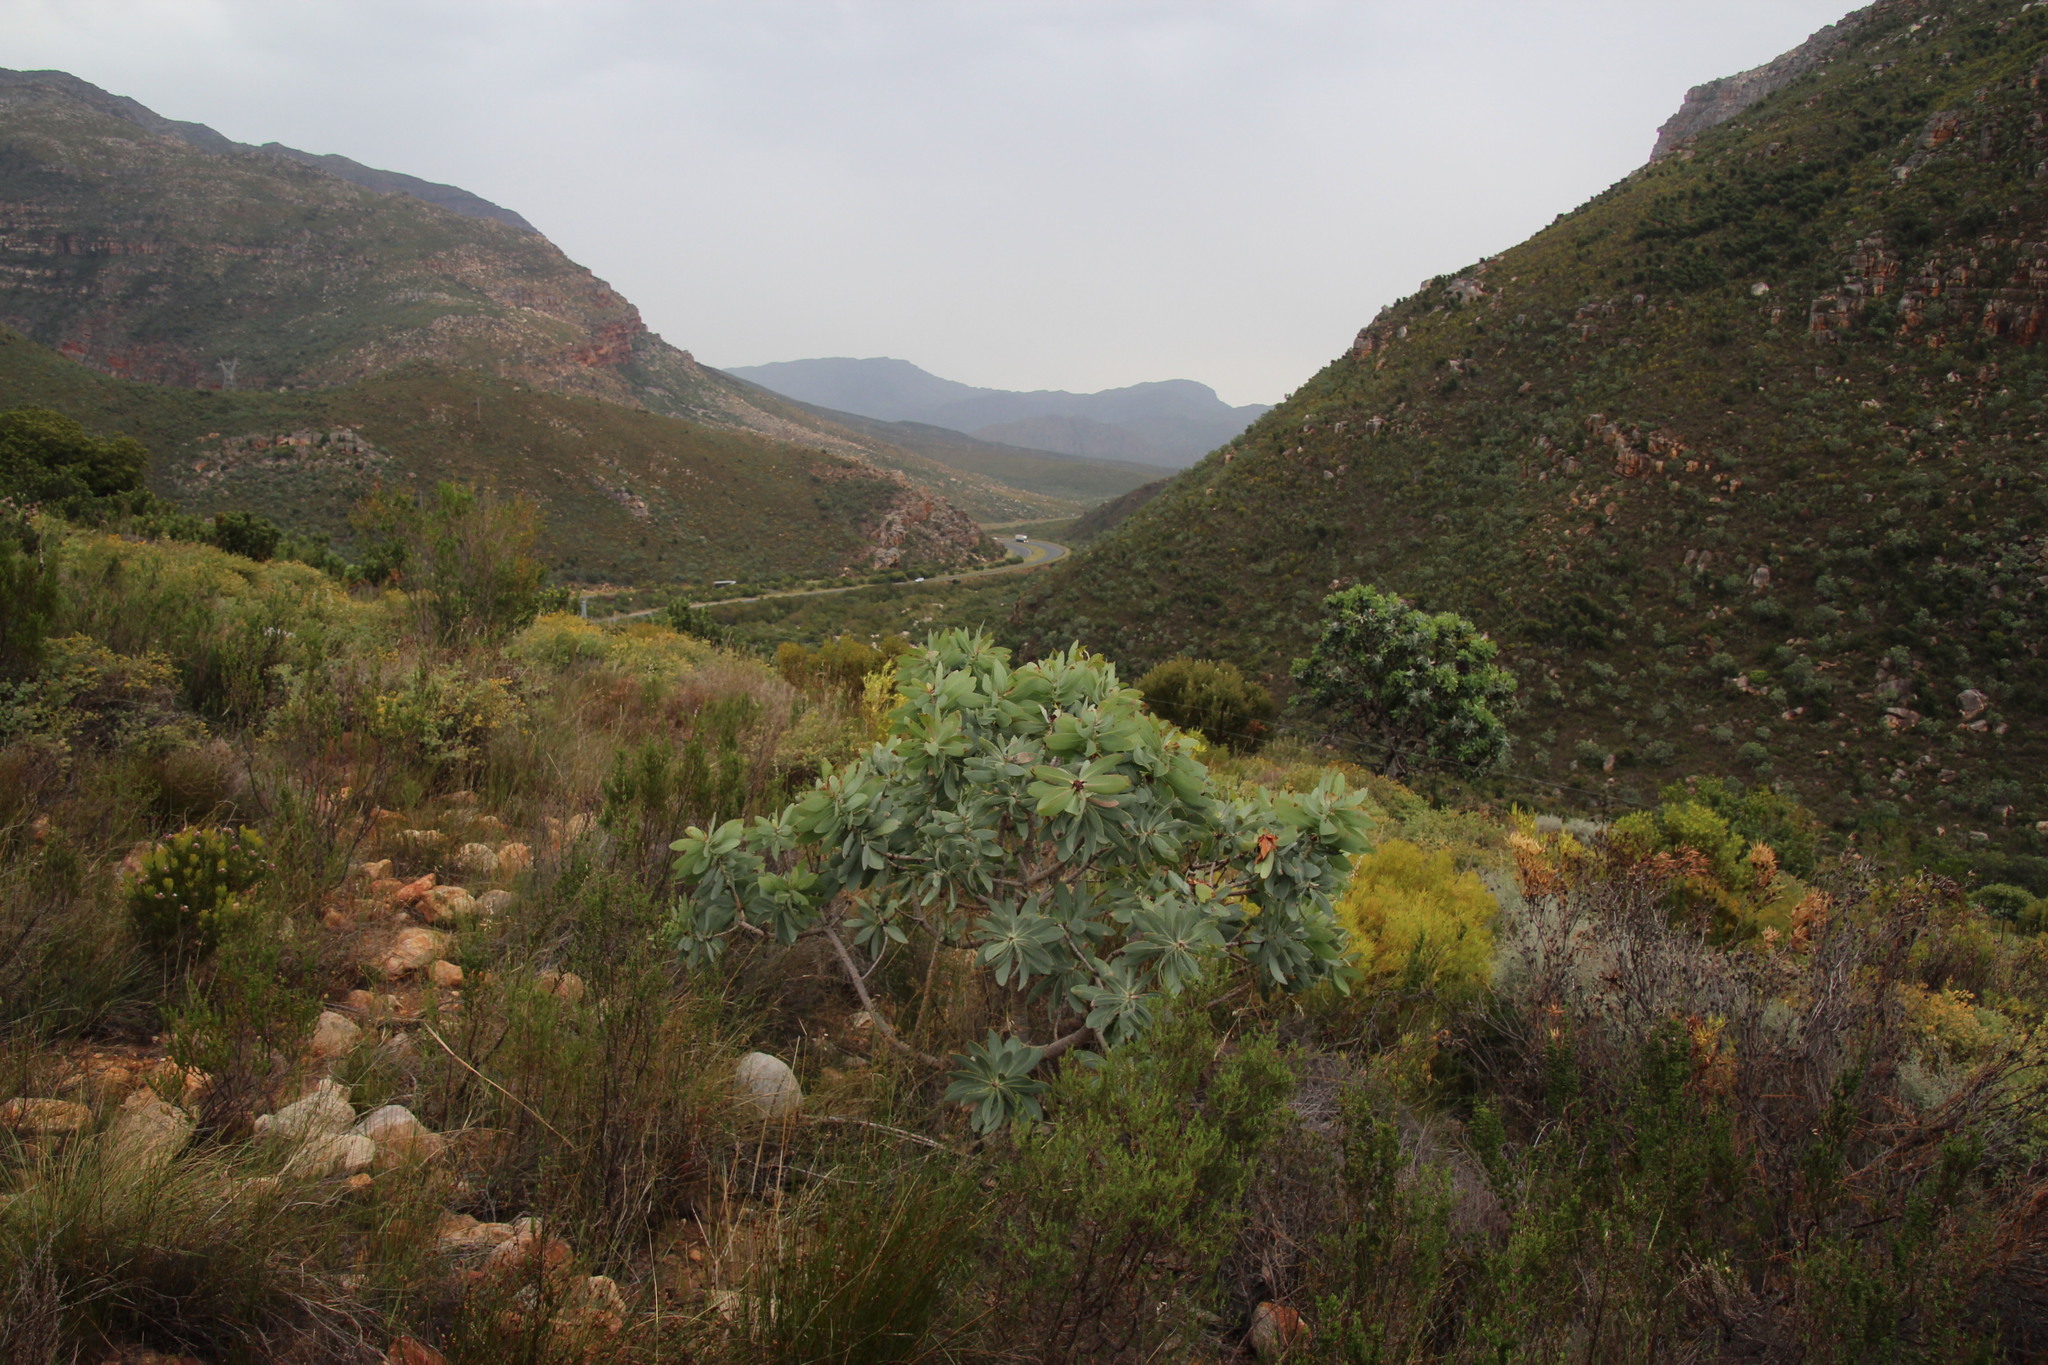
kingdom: Plantae
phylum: Tracheophyta
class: Magnoliopsida
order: Proteales
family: Proteaceae
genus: Protea
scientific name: Protea nitida
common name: Tree protea
